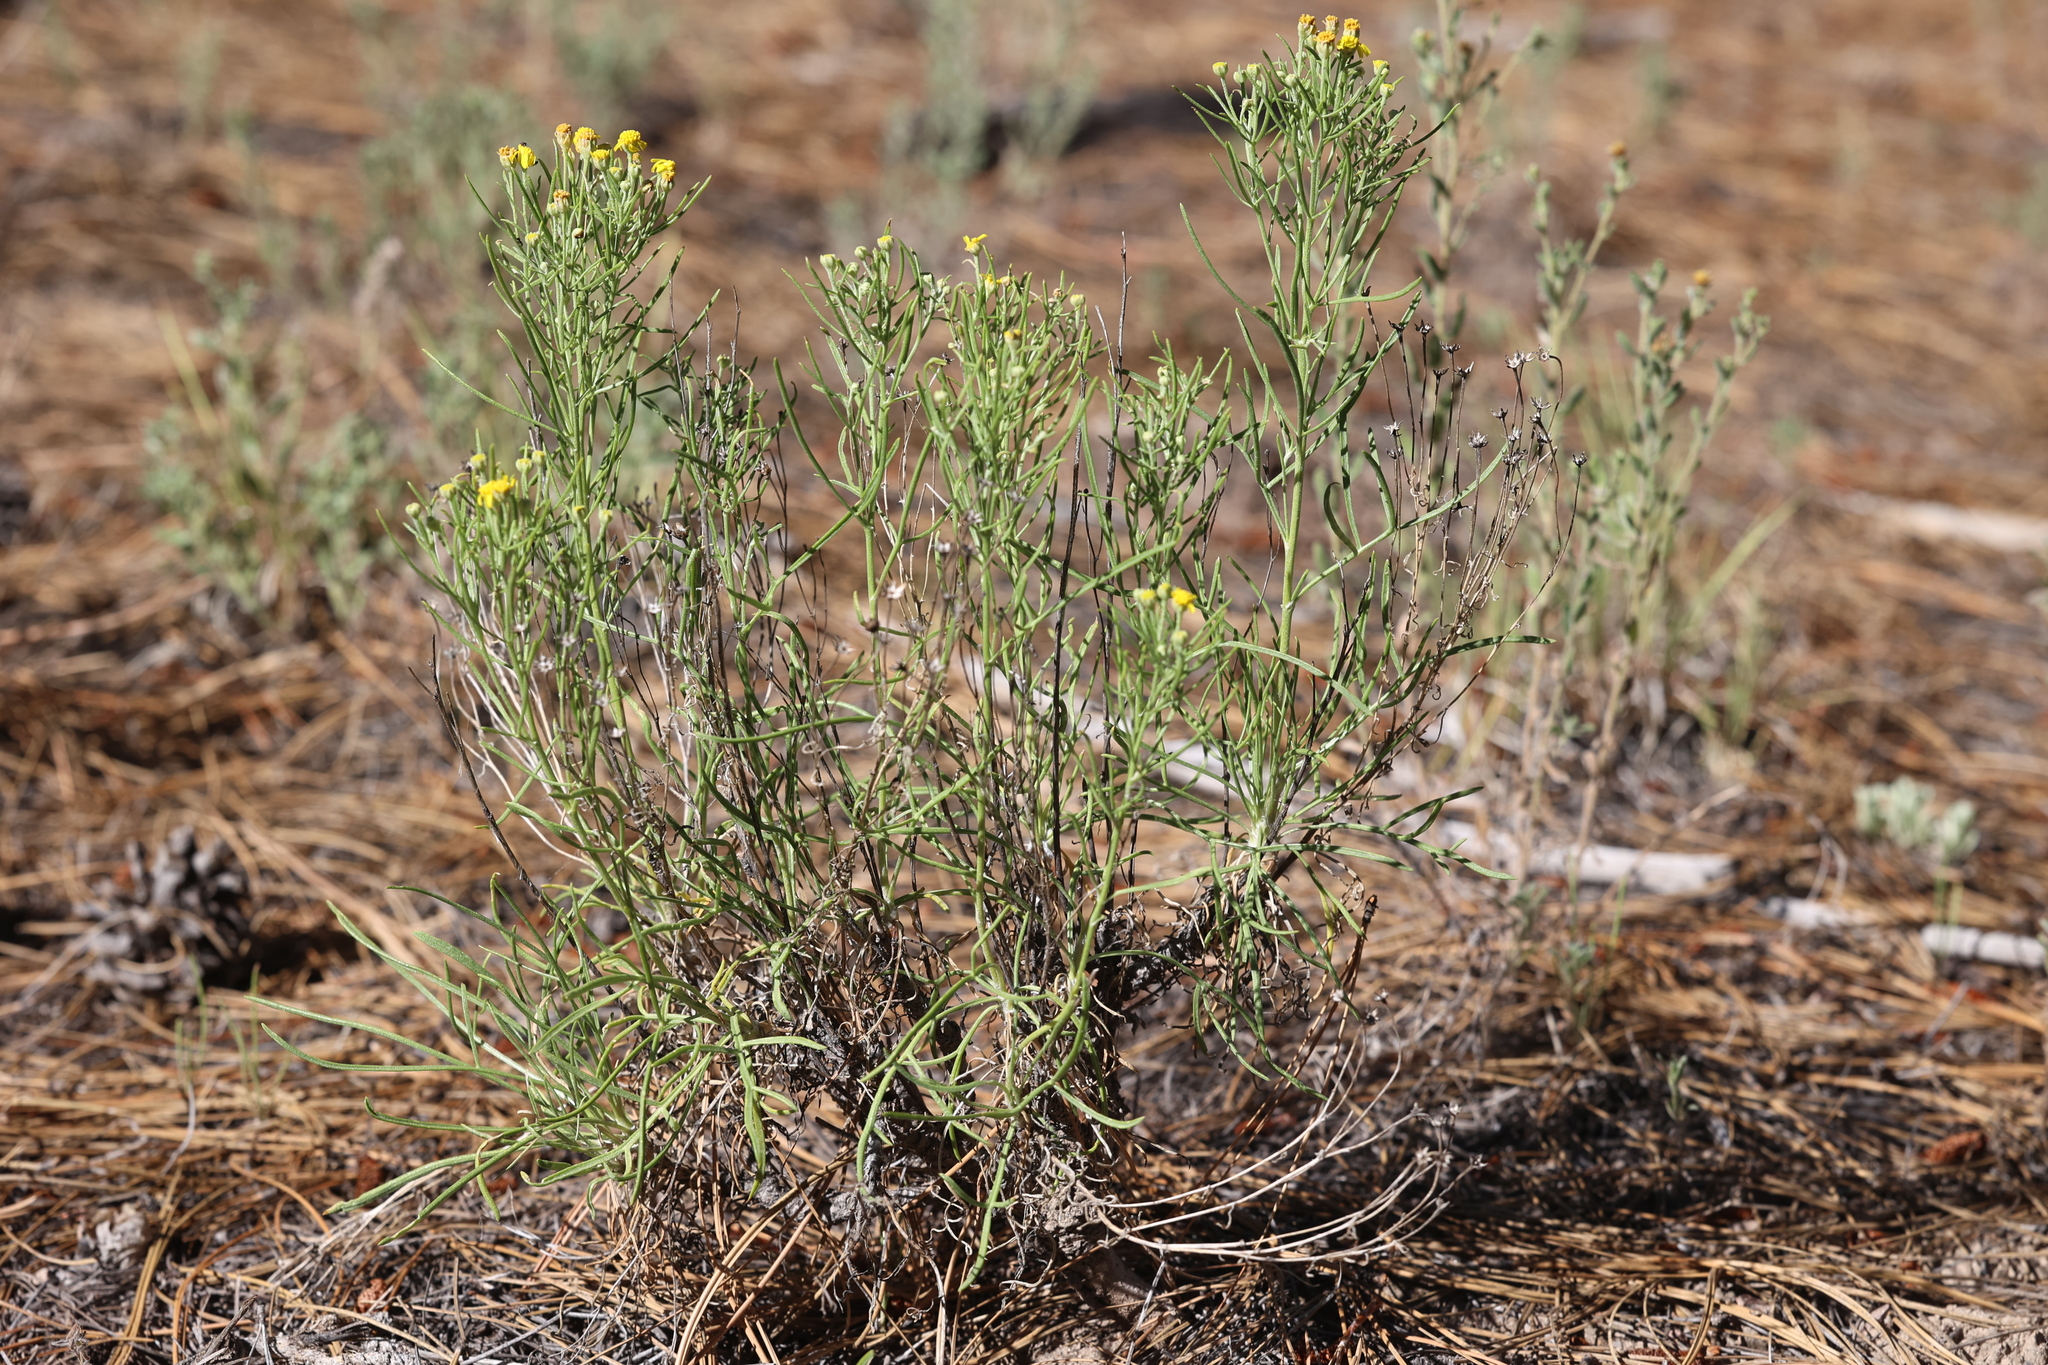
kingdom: Plantae
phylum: Tracheophyta
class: Magnoliopsida
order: Asterales
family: Asteraceae
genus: Hymenoxys
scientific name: Hymenoxys richardsonii
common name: Pingue rubberweed
